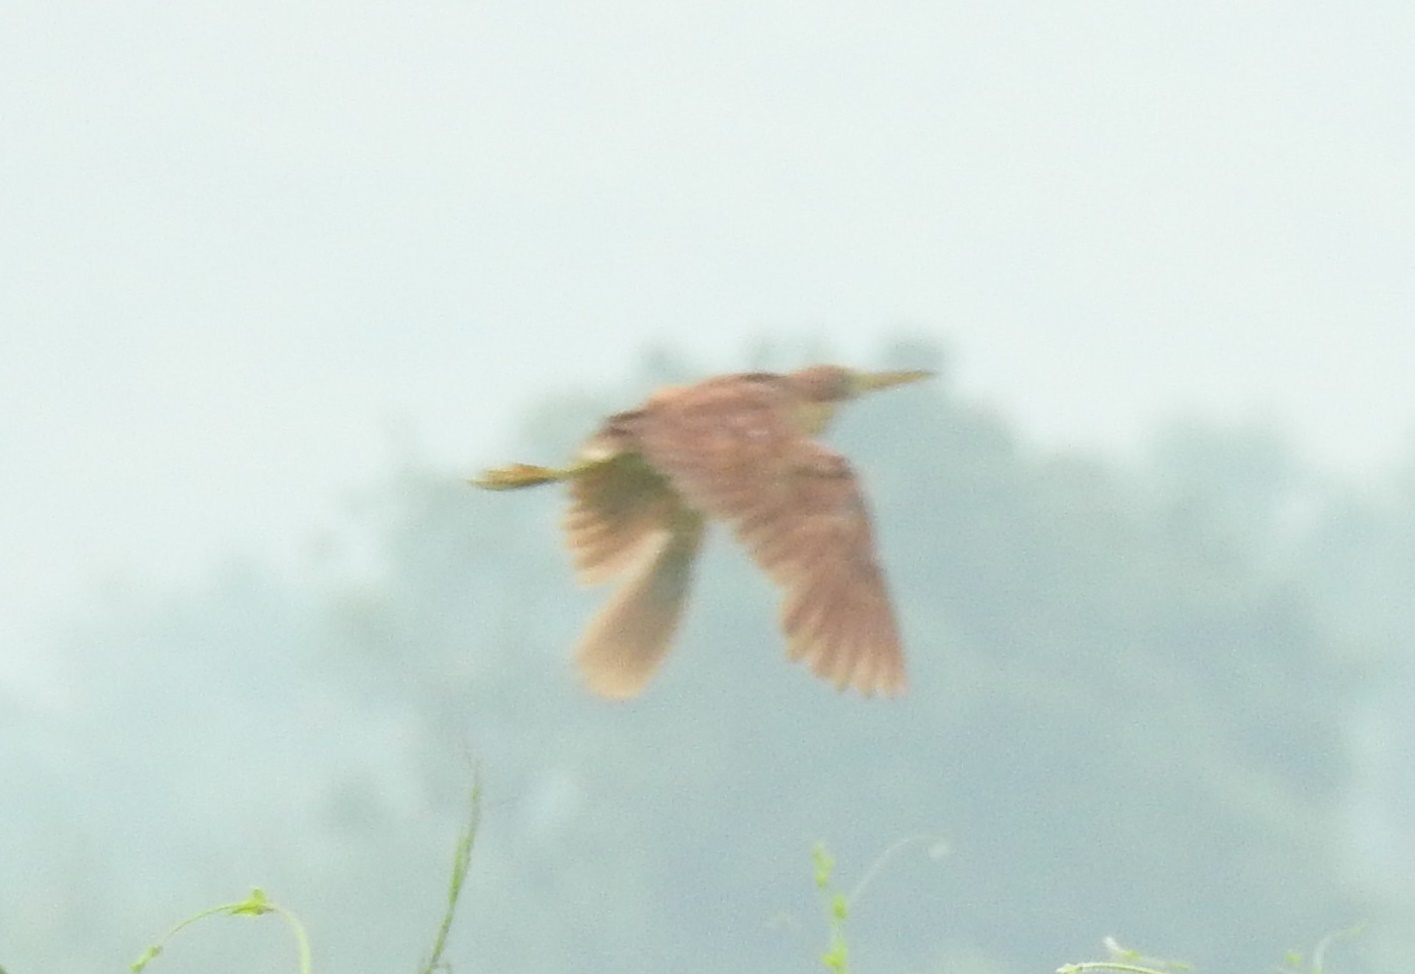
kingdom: Animalia
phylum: Chordata
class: Aves
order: Pelecaniformes
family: Ardeidae
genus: Ixobrychus
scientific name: Ixobrychus cinnamomeus
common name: Cinnamon bittern
